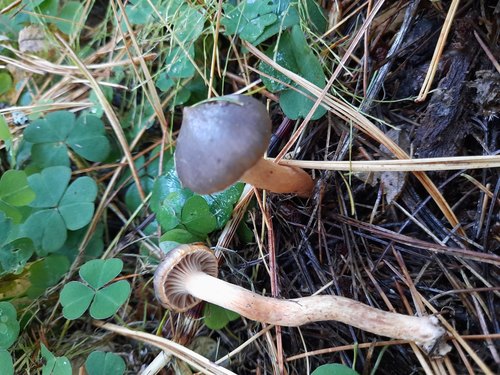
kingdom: Fungi
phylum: Basidiomycota
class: Agaricomycetes
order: Boletales
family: Gomphidiaceae
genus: Chroogomphus
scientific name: Chroogomphus
